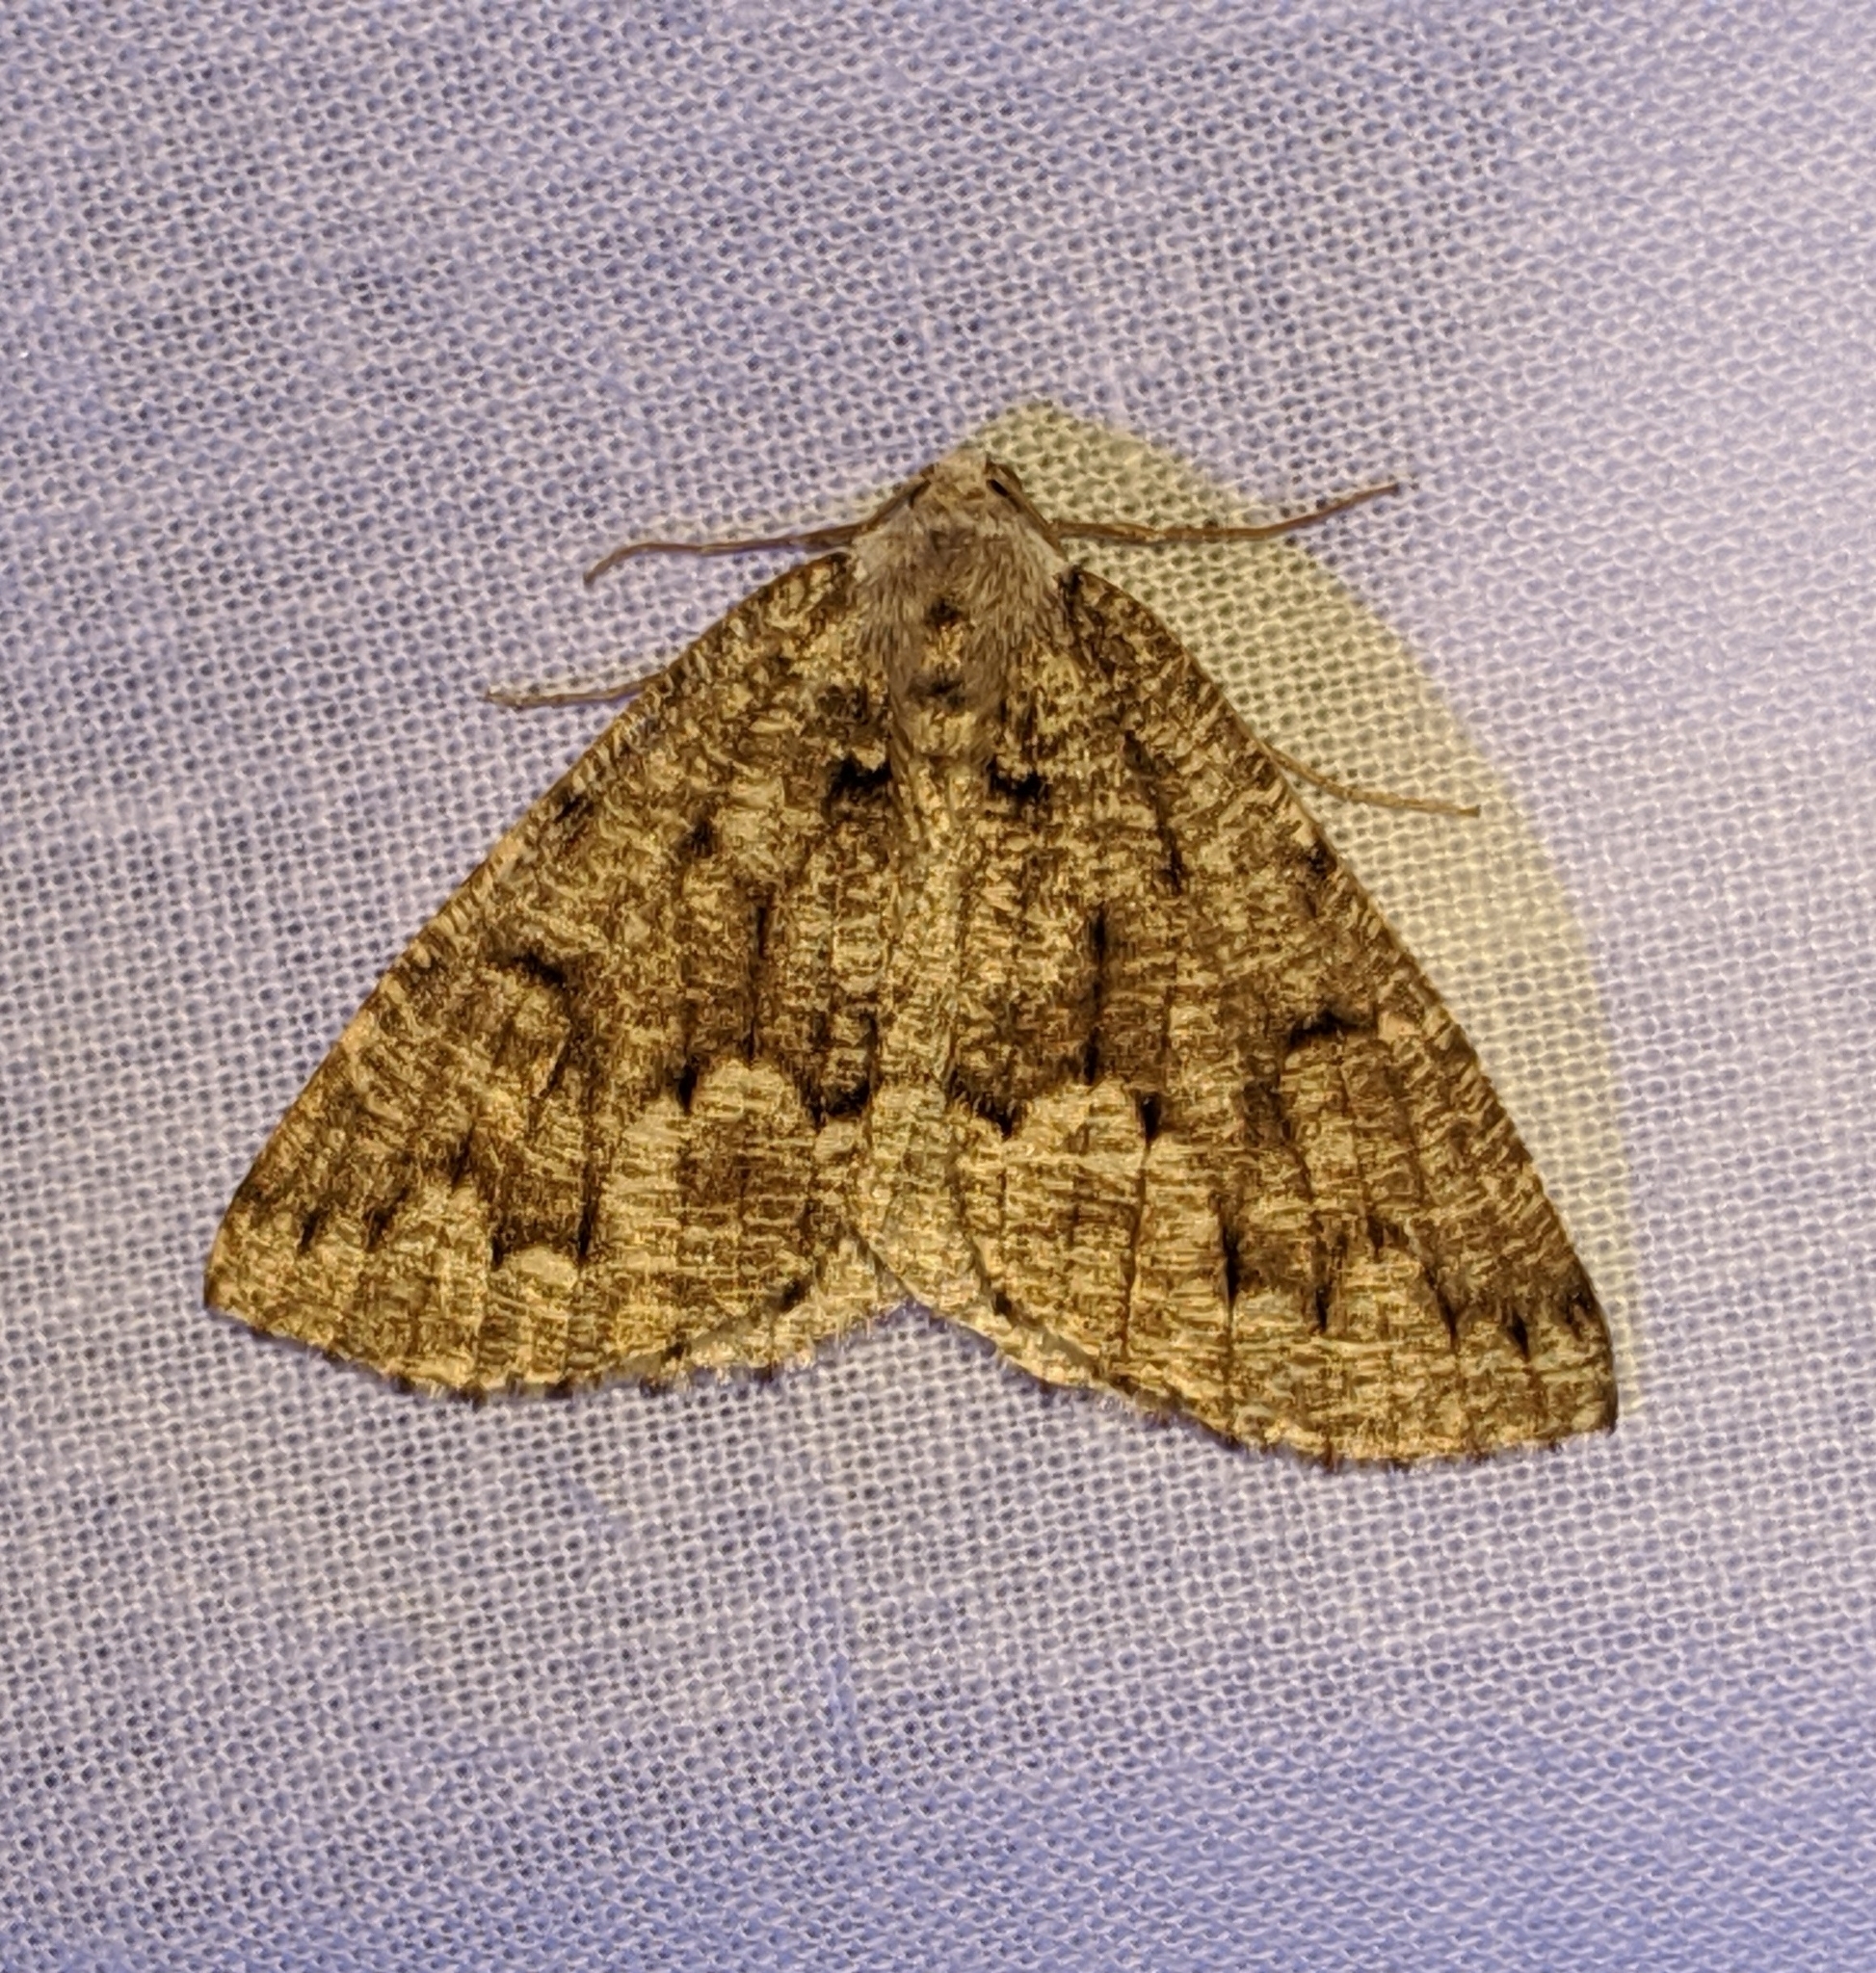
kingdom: Animalia
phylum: Arthropoda
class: Insecta
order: Lepidoptera
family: Geometridae
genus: Sabulodes
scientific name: Sabulodes
